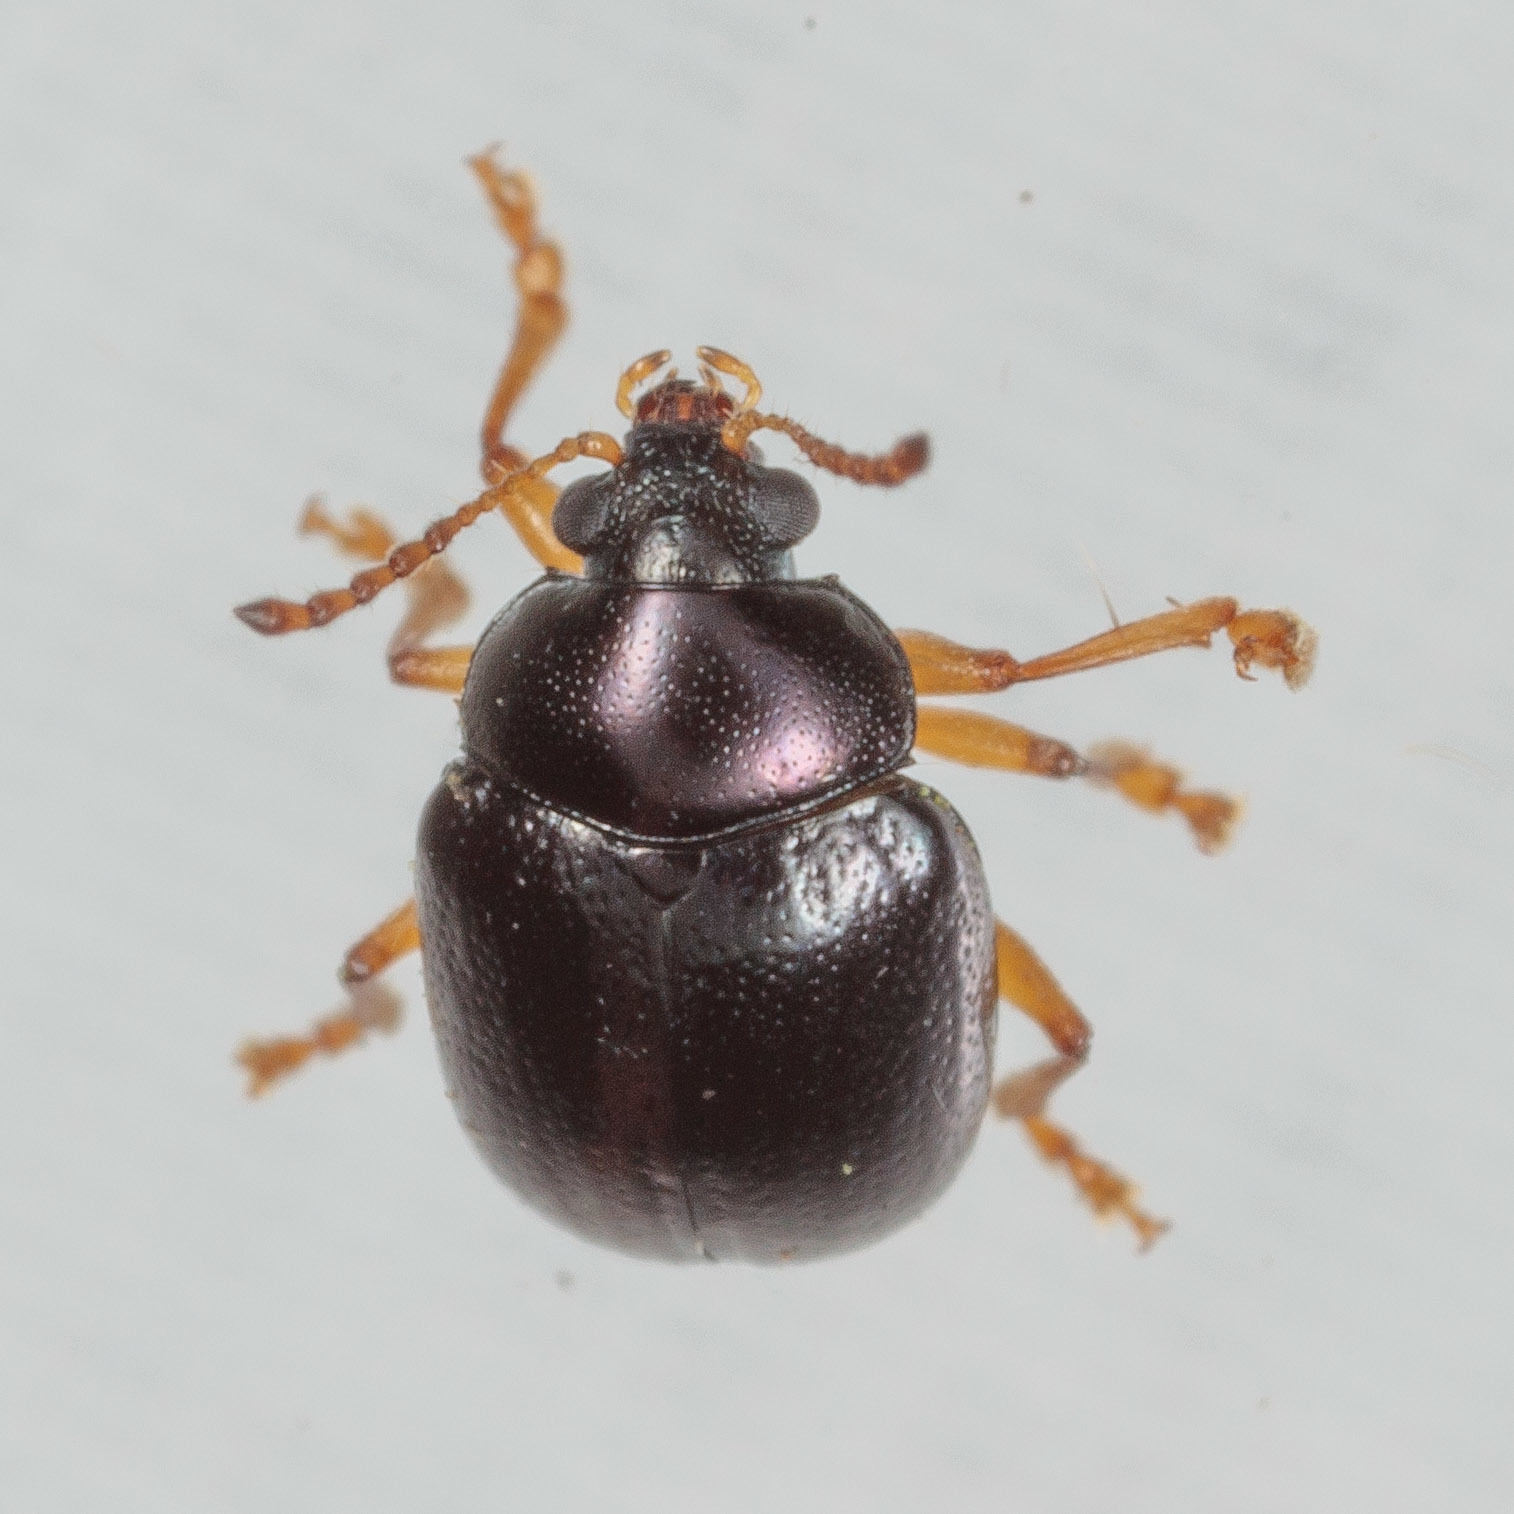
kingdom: Animalia
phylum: Arthropoda
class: Insecta
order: Coleoptera
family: Chrysomelidae
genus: Brachypnoea
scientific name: Brachypnoea lecontei
